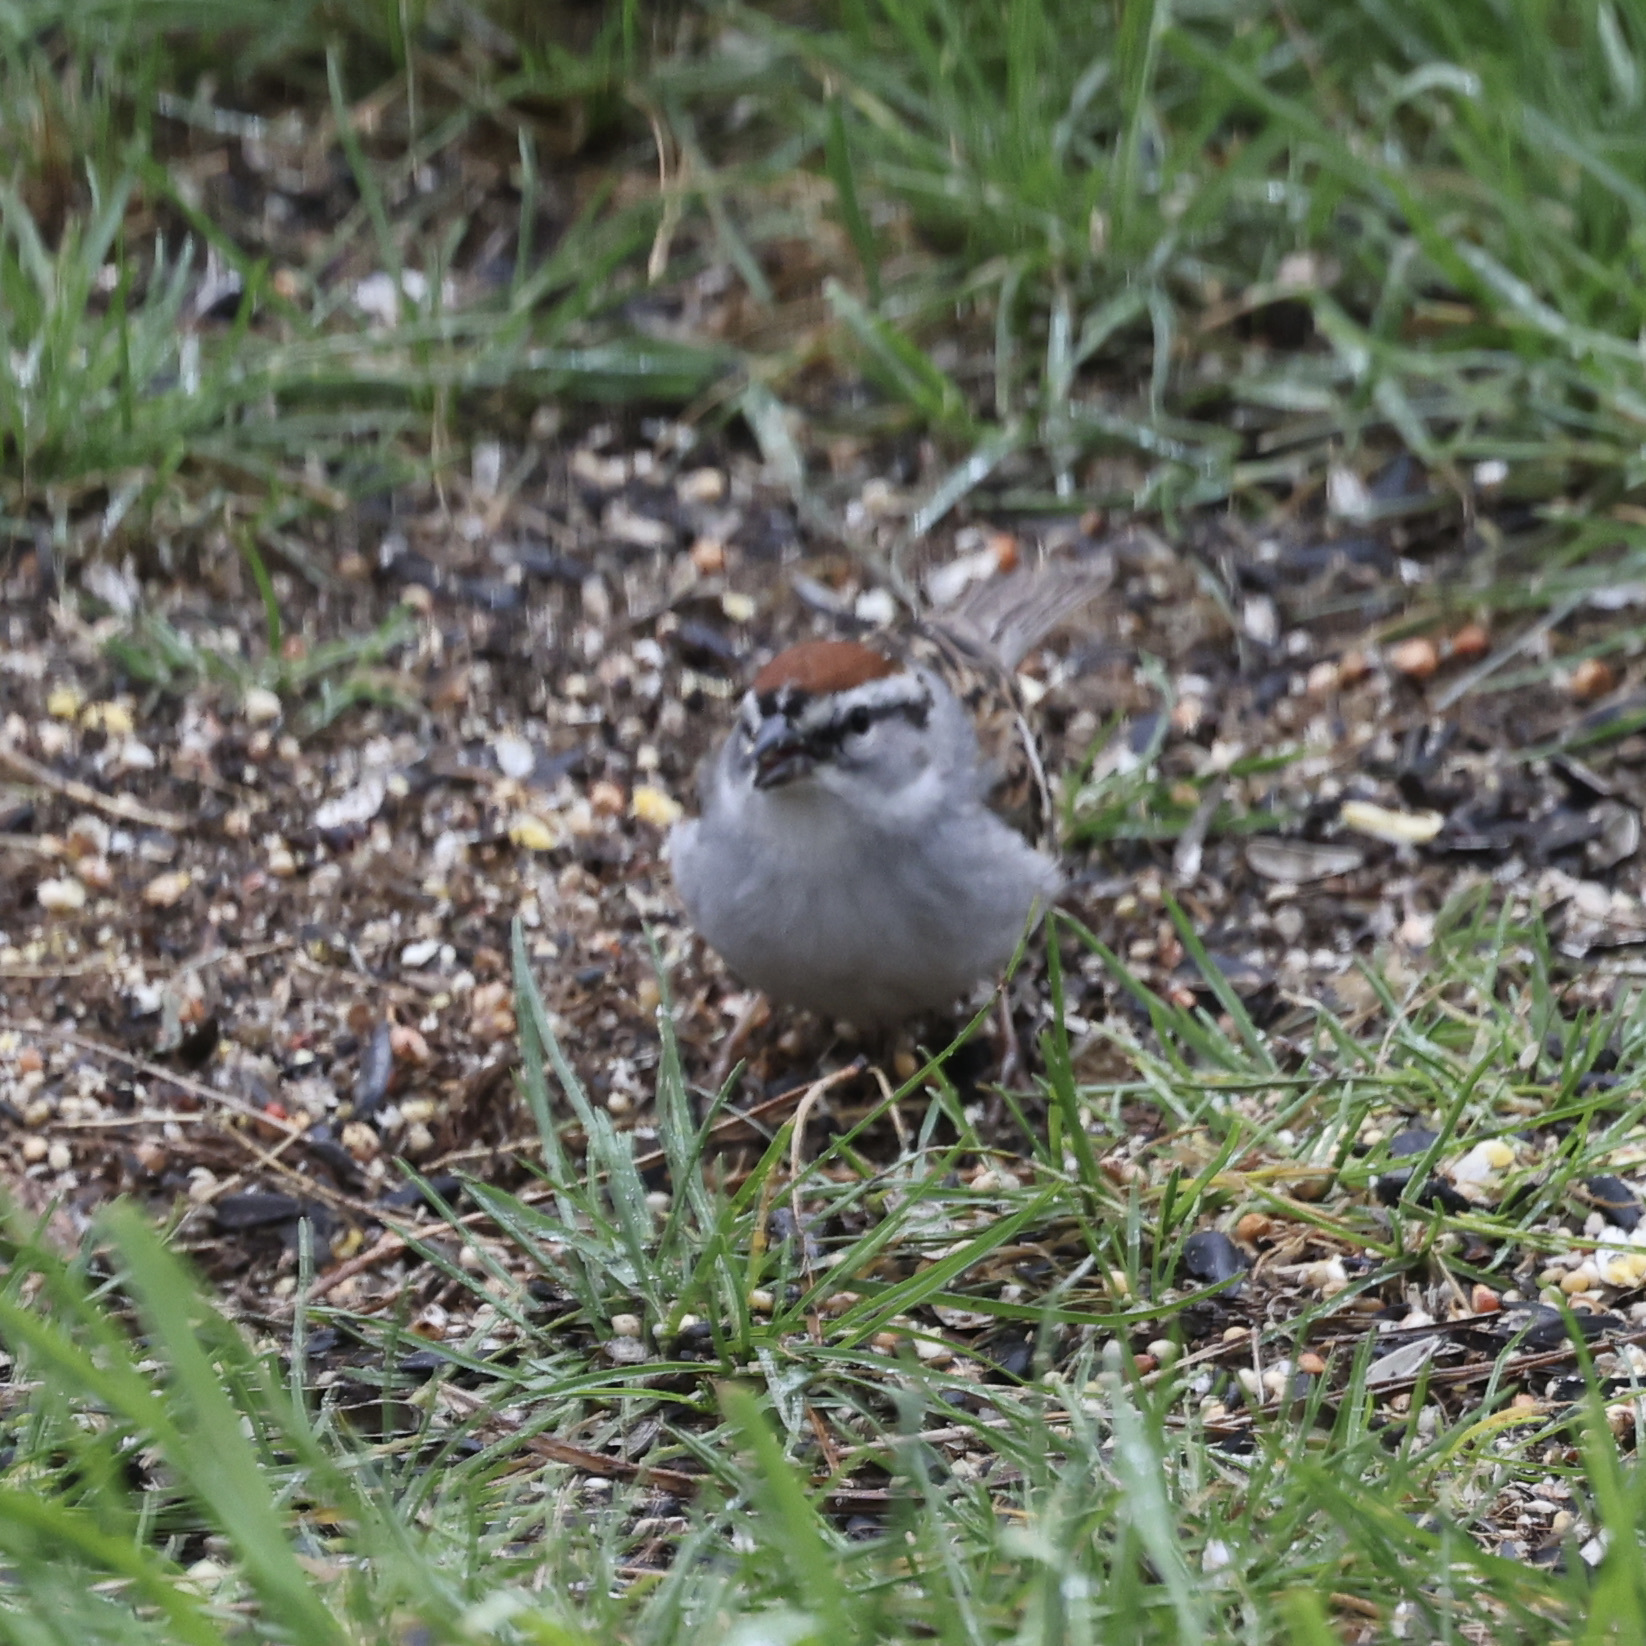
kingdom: Animalia
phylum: Chordata
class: Aves
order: Passeriformes
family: Passerellidae
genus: Spizella
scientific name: Spizella passerina
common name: Chipping sparrow
